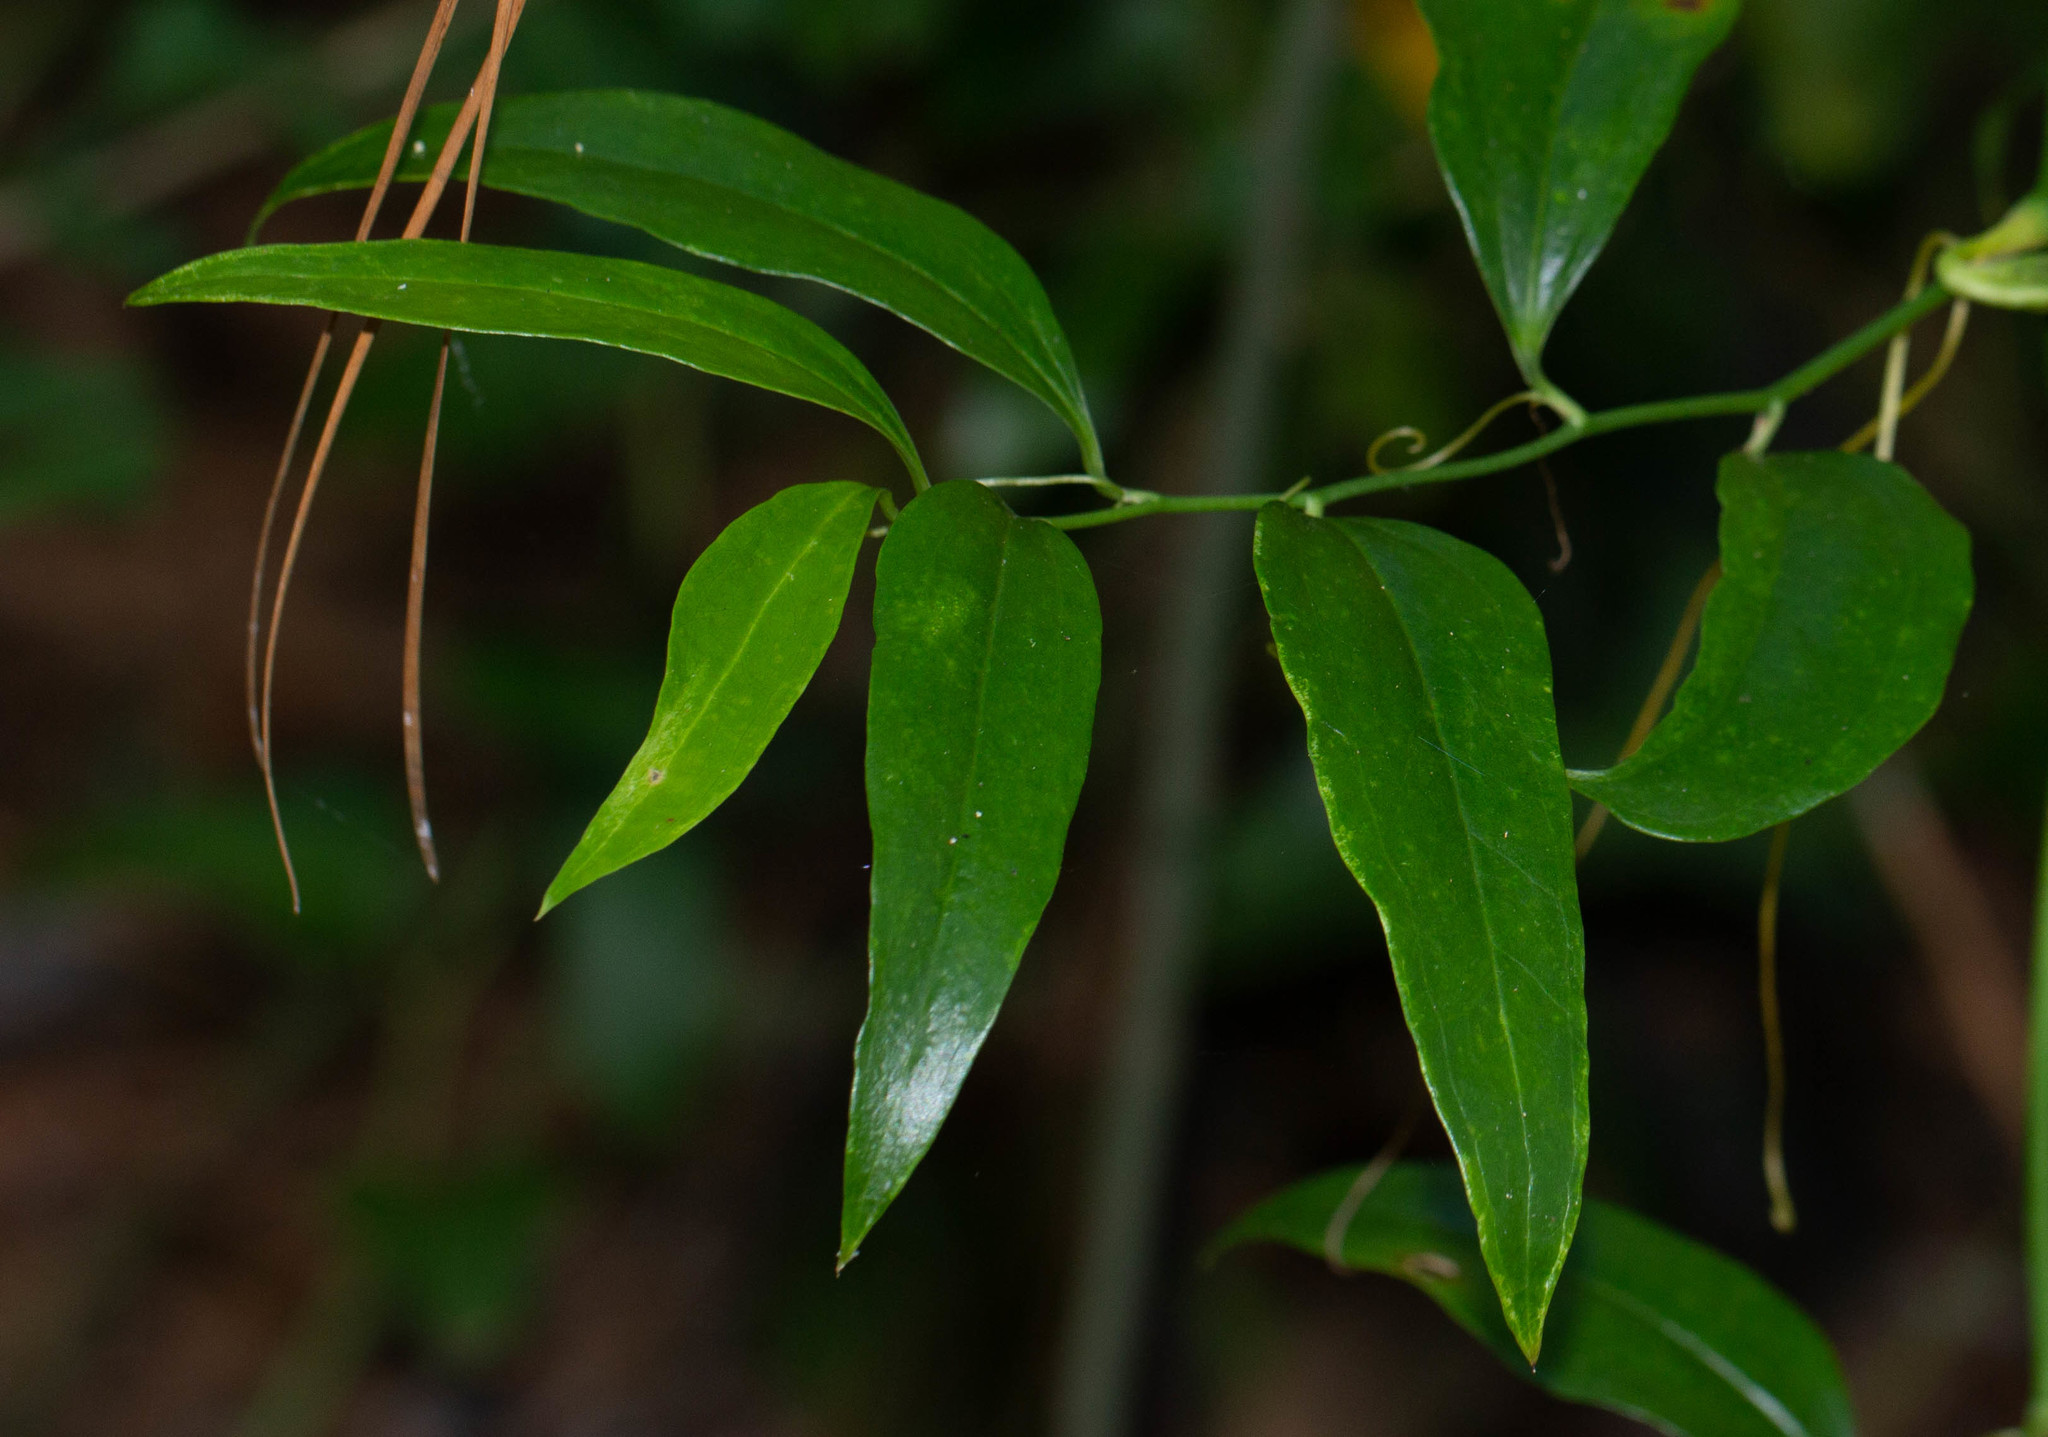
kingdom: Plantae
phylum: Tracheophyta
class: Liliopsida
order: Liliales
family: Smilacaceae
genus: Smilax
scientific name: Smilax maritima
